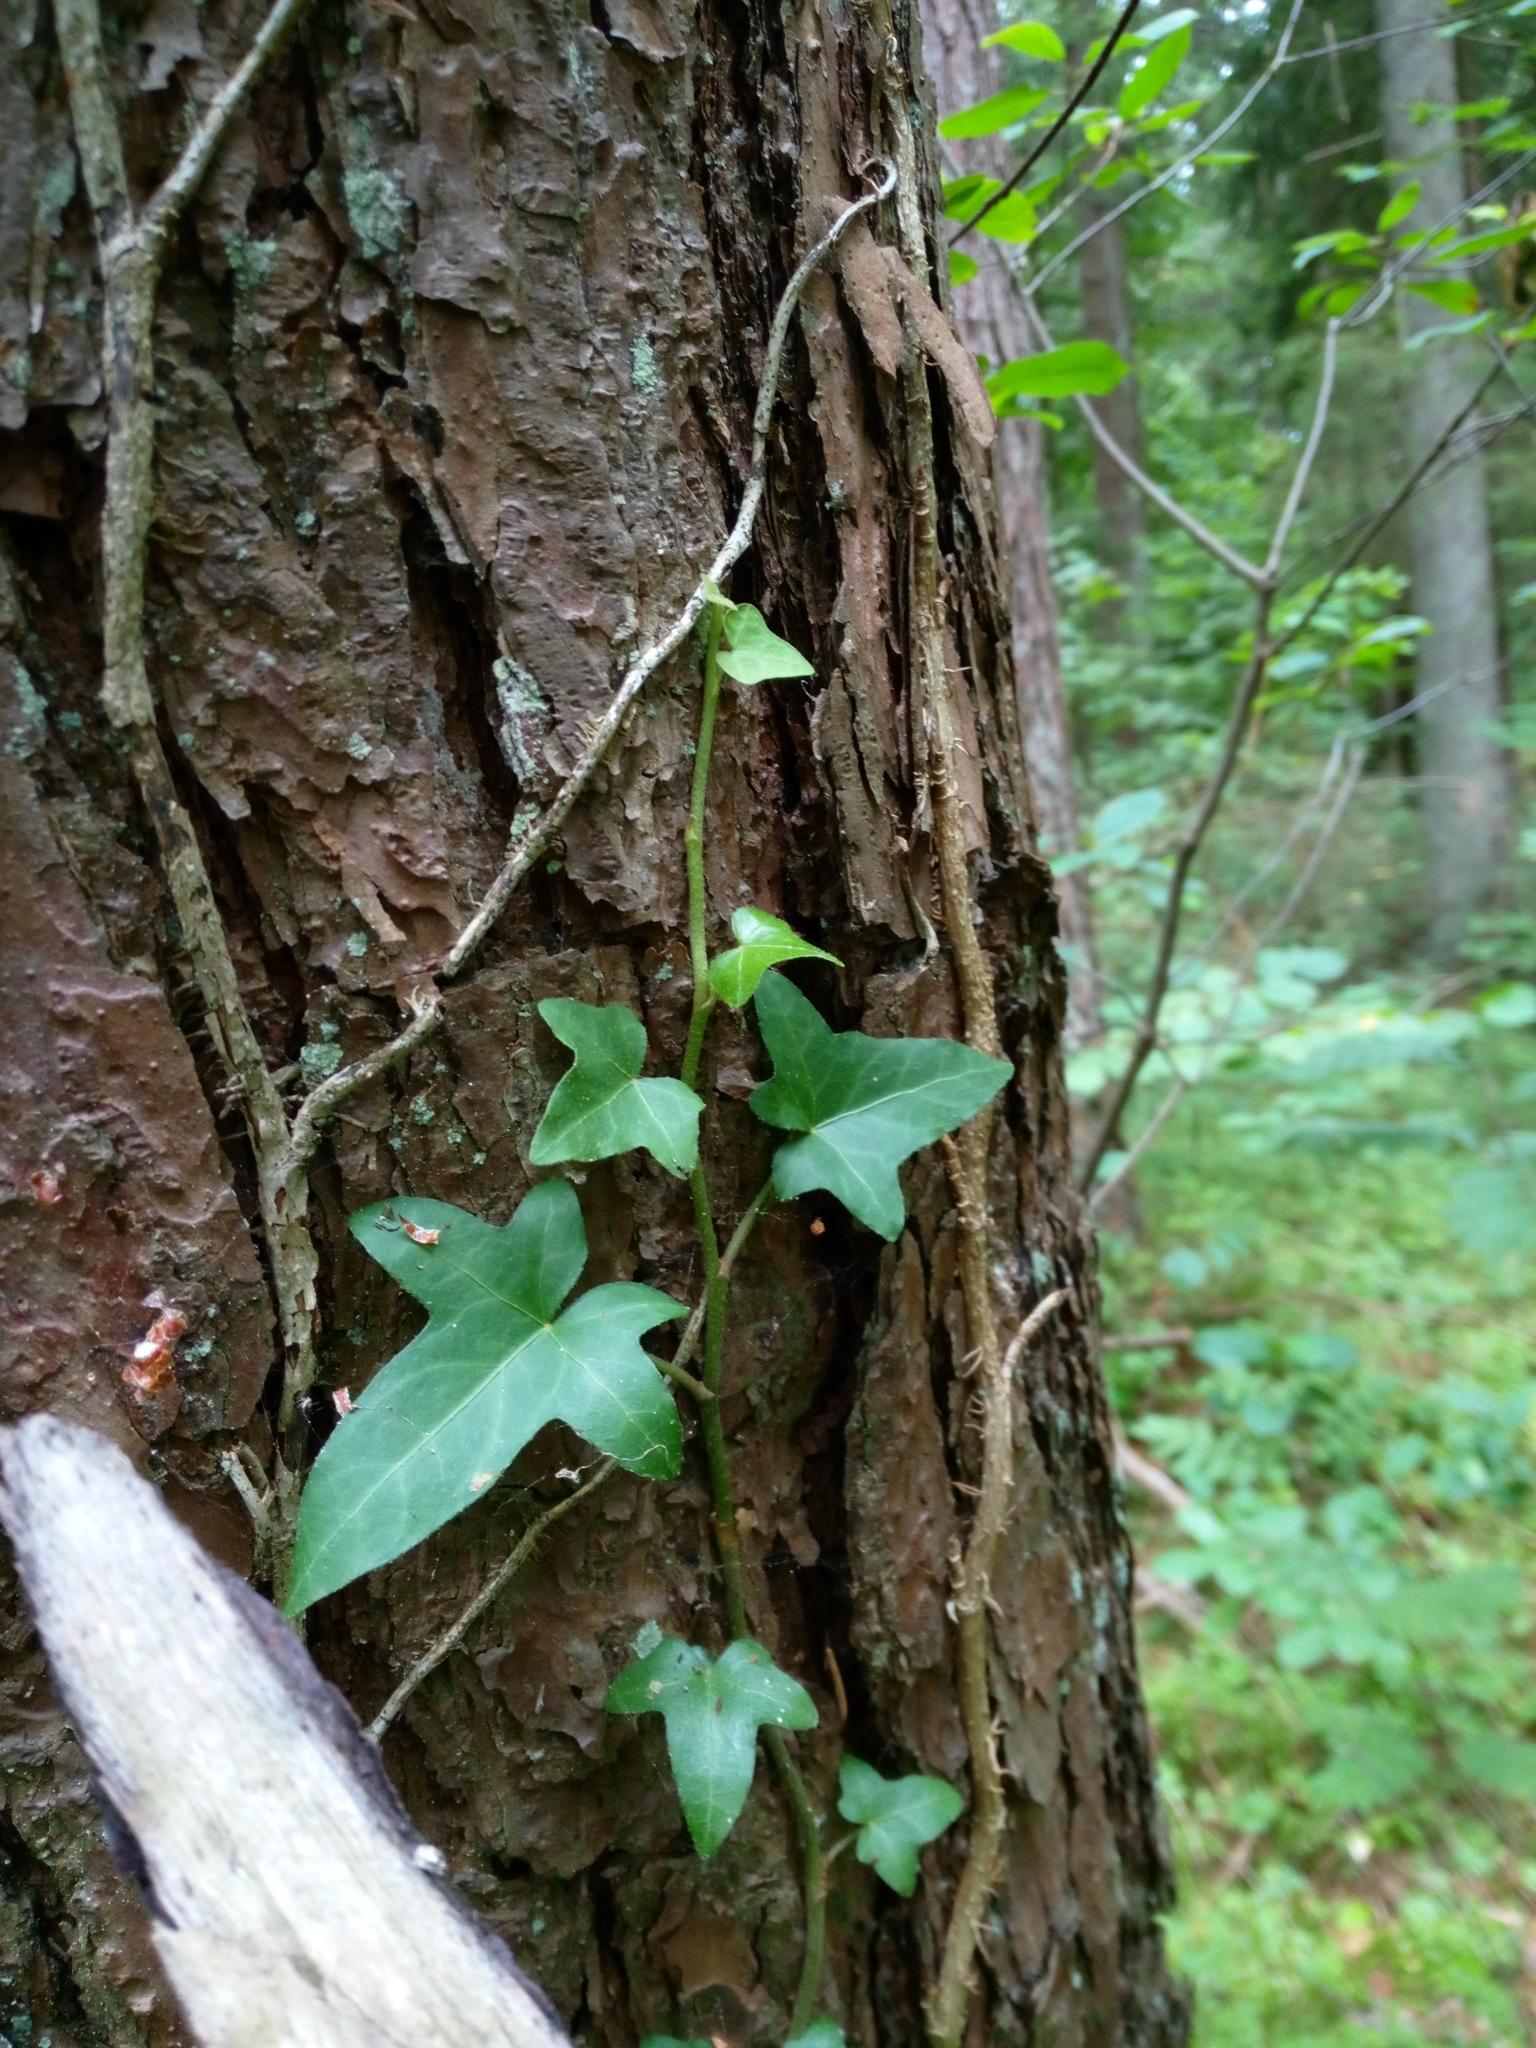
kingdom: Plantae
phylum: Tracheophyta
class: Magnoliopsida
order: Apiales
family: Araliaceae
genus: Hedera
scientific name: Hedera helix
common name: Ivy
